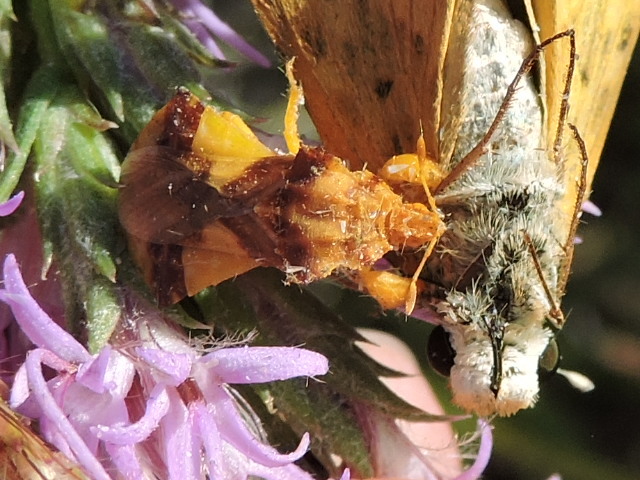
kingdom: Animalia
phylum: Arthropoda
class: Insecta
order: Hemiptera
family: Reduviidae
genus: Phymata
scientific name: Phymata americana
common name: Jagged ambush bug
